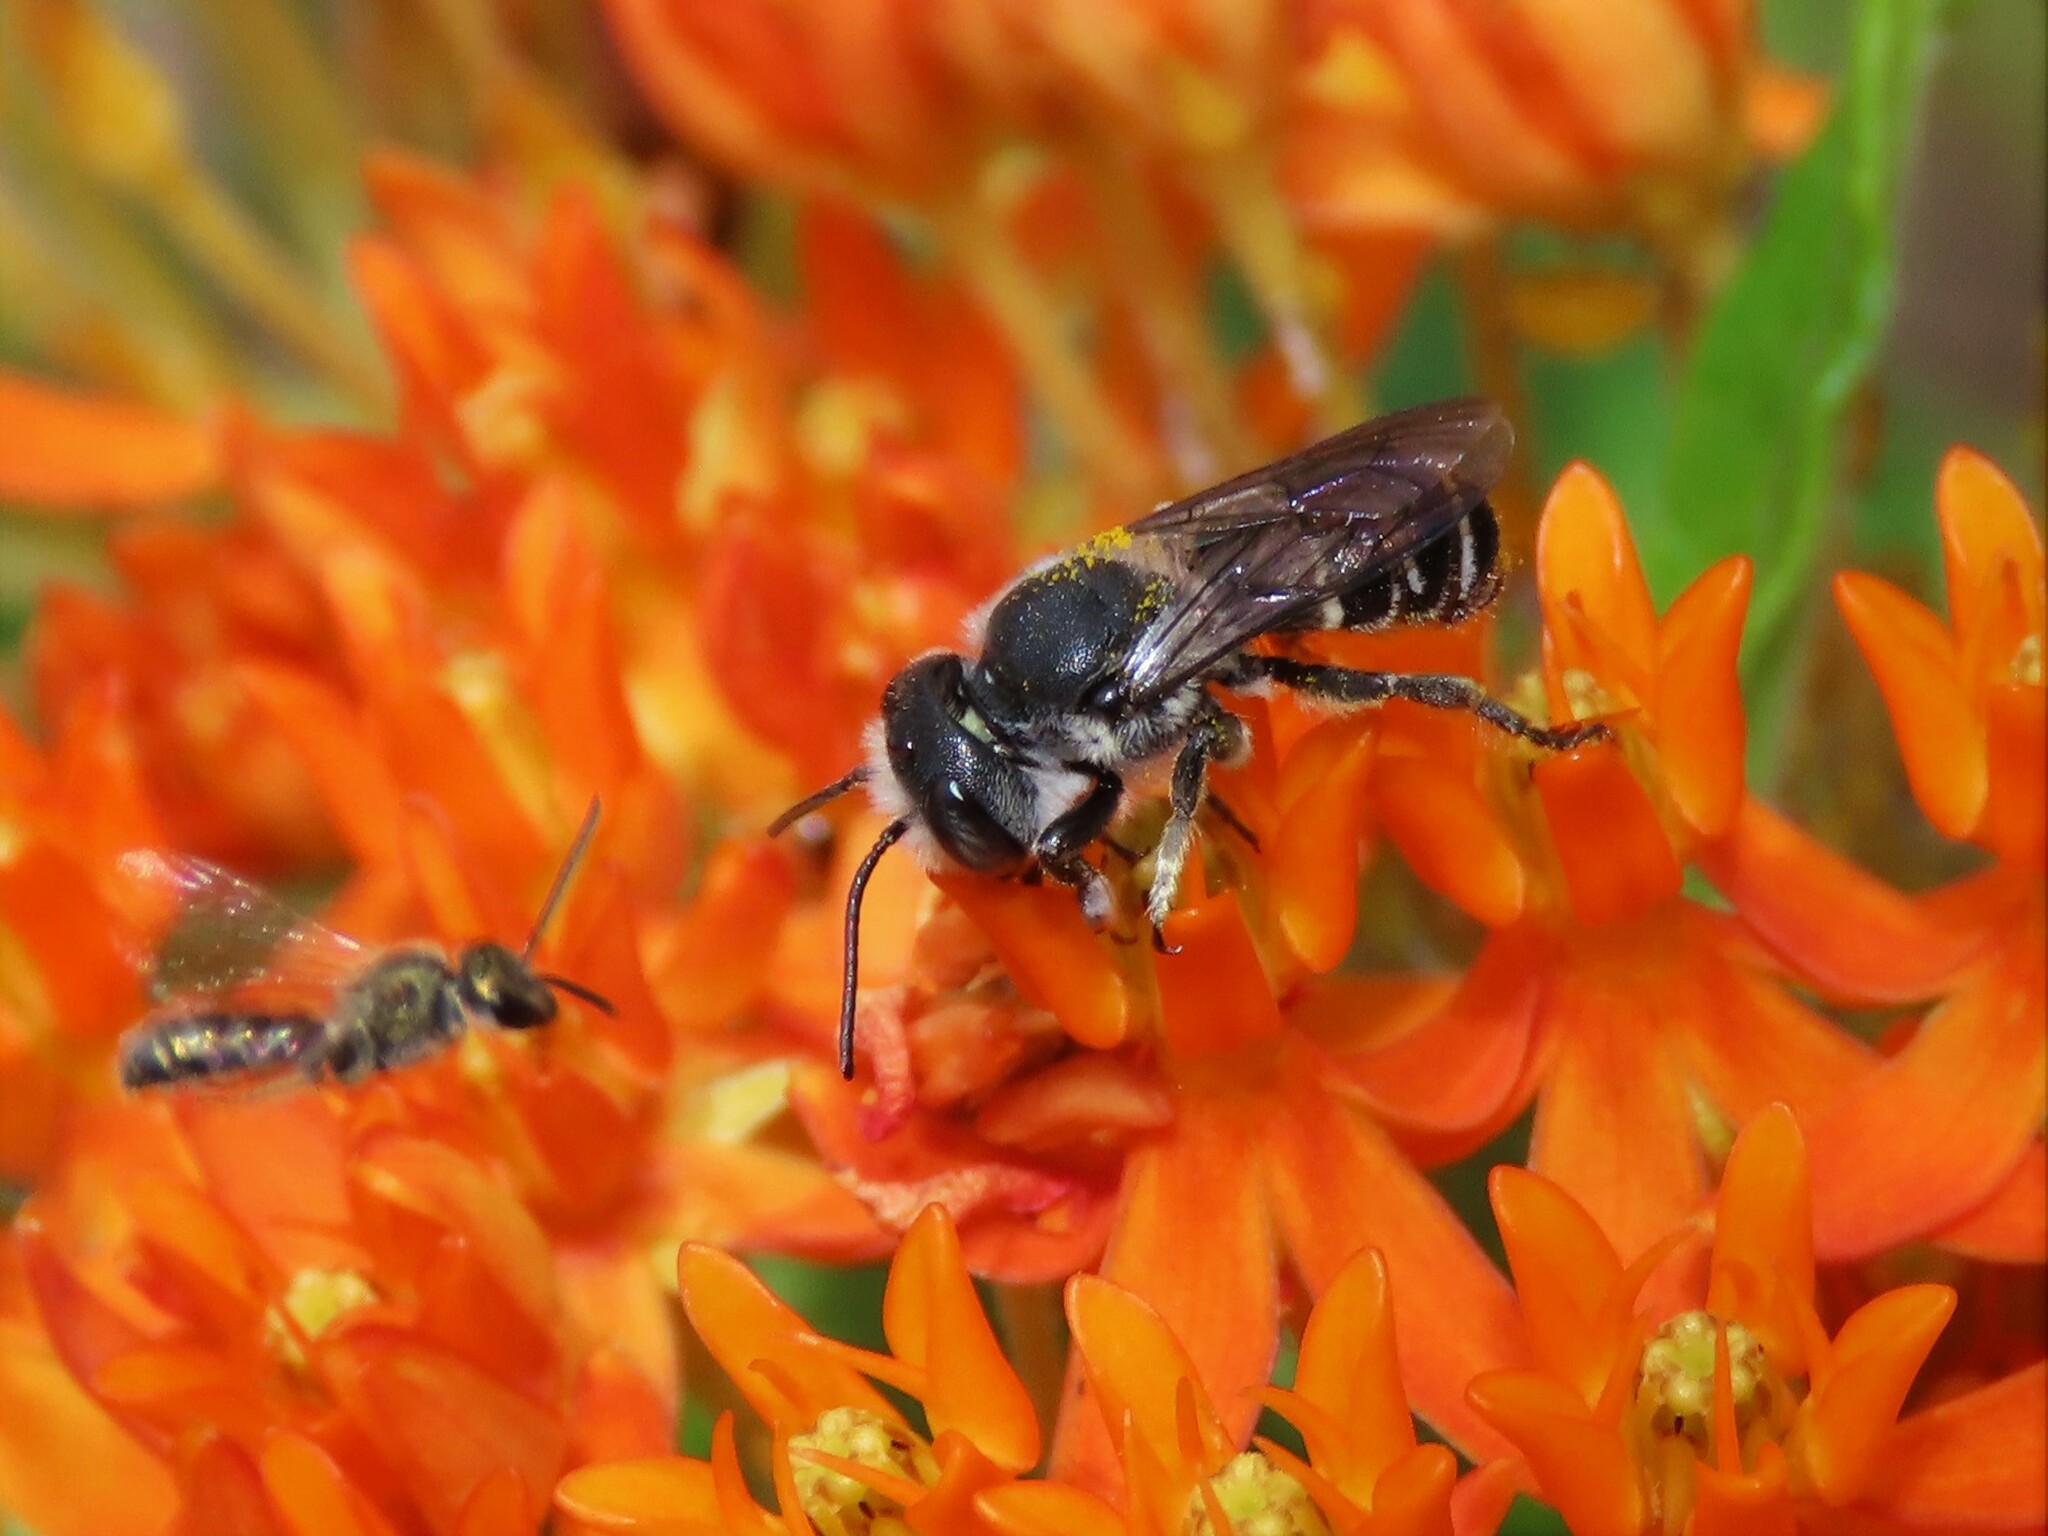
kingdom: Animalia
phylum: Arthropoda
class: Insecta
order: Hymenoptera
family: Megachilidae
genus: Megachile
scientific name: Megachile exilis
